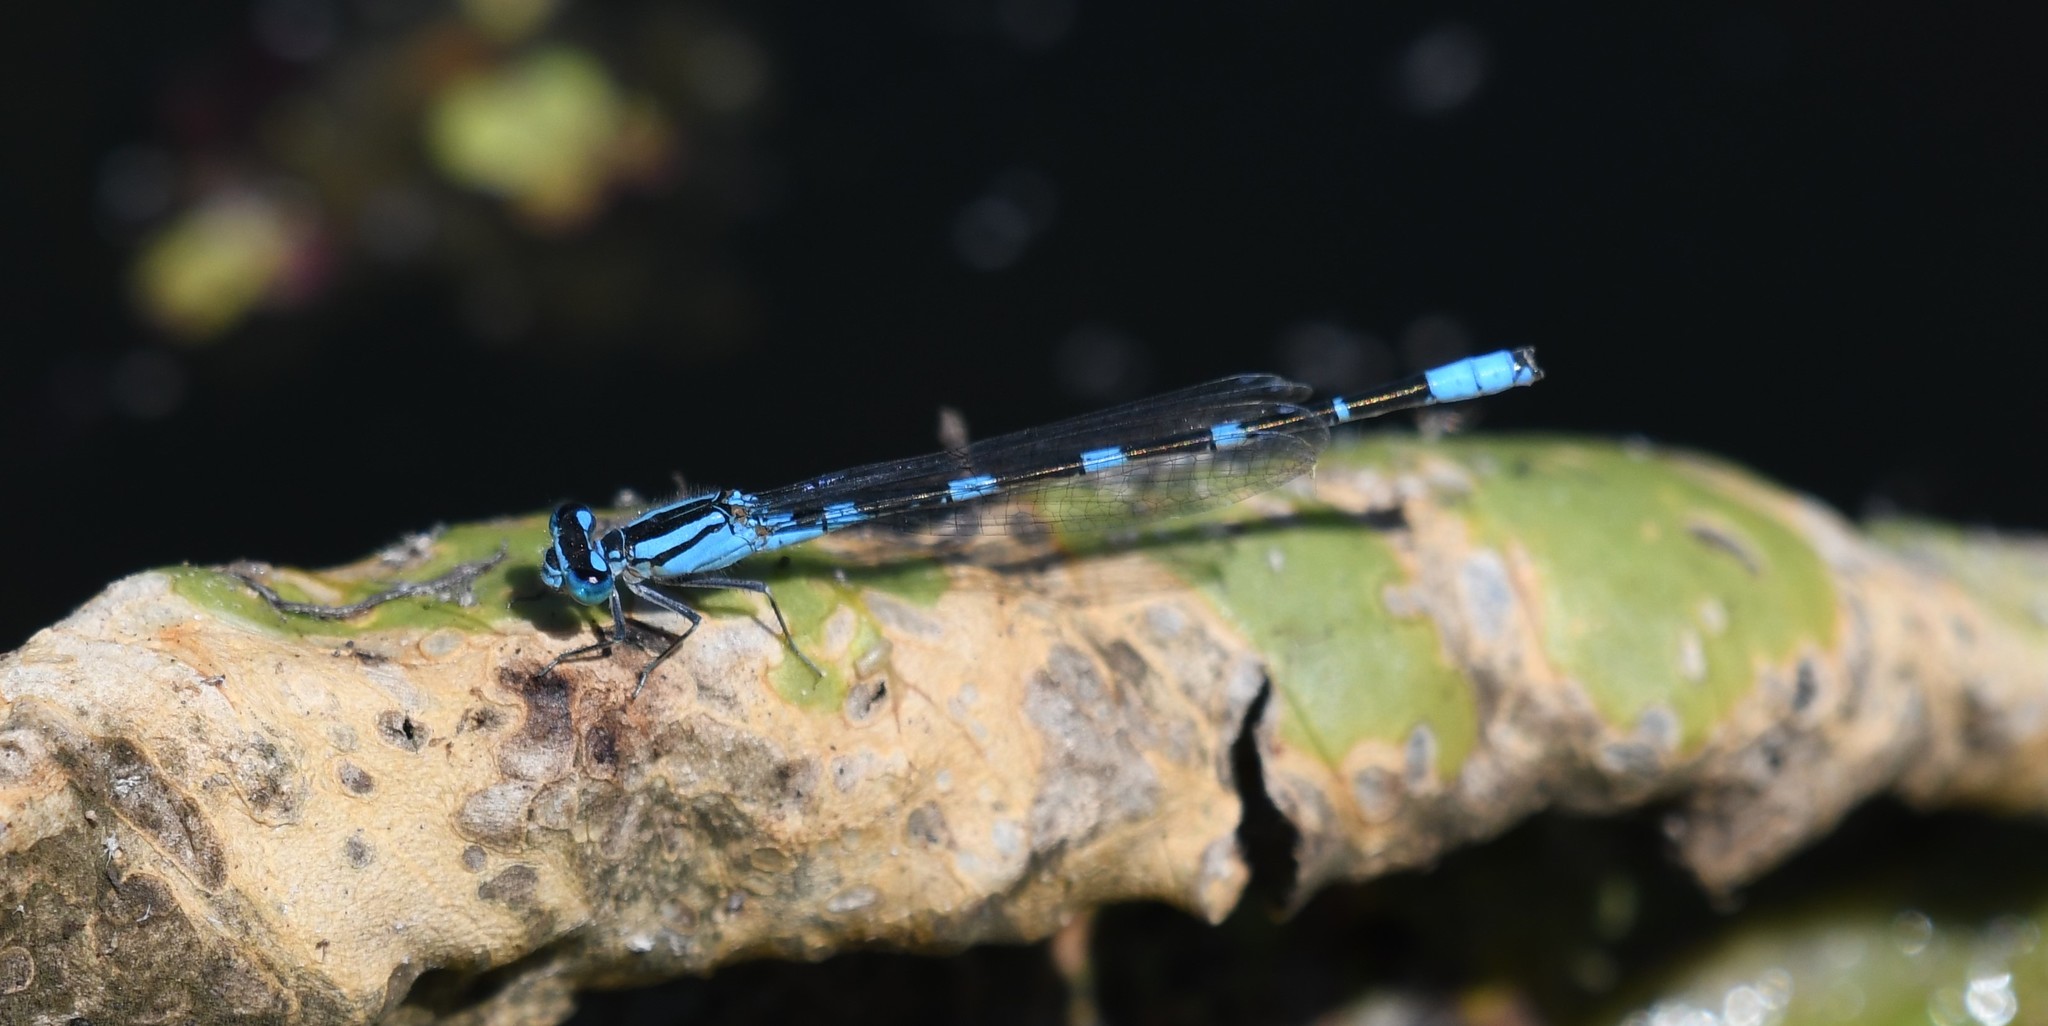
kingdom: Animalia
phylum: Arthropoda
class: Insecta
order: Odonata
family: Coenagrionidae
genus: Enallagma
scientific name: Enallagma carunculatum
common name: Tule bluet
